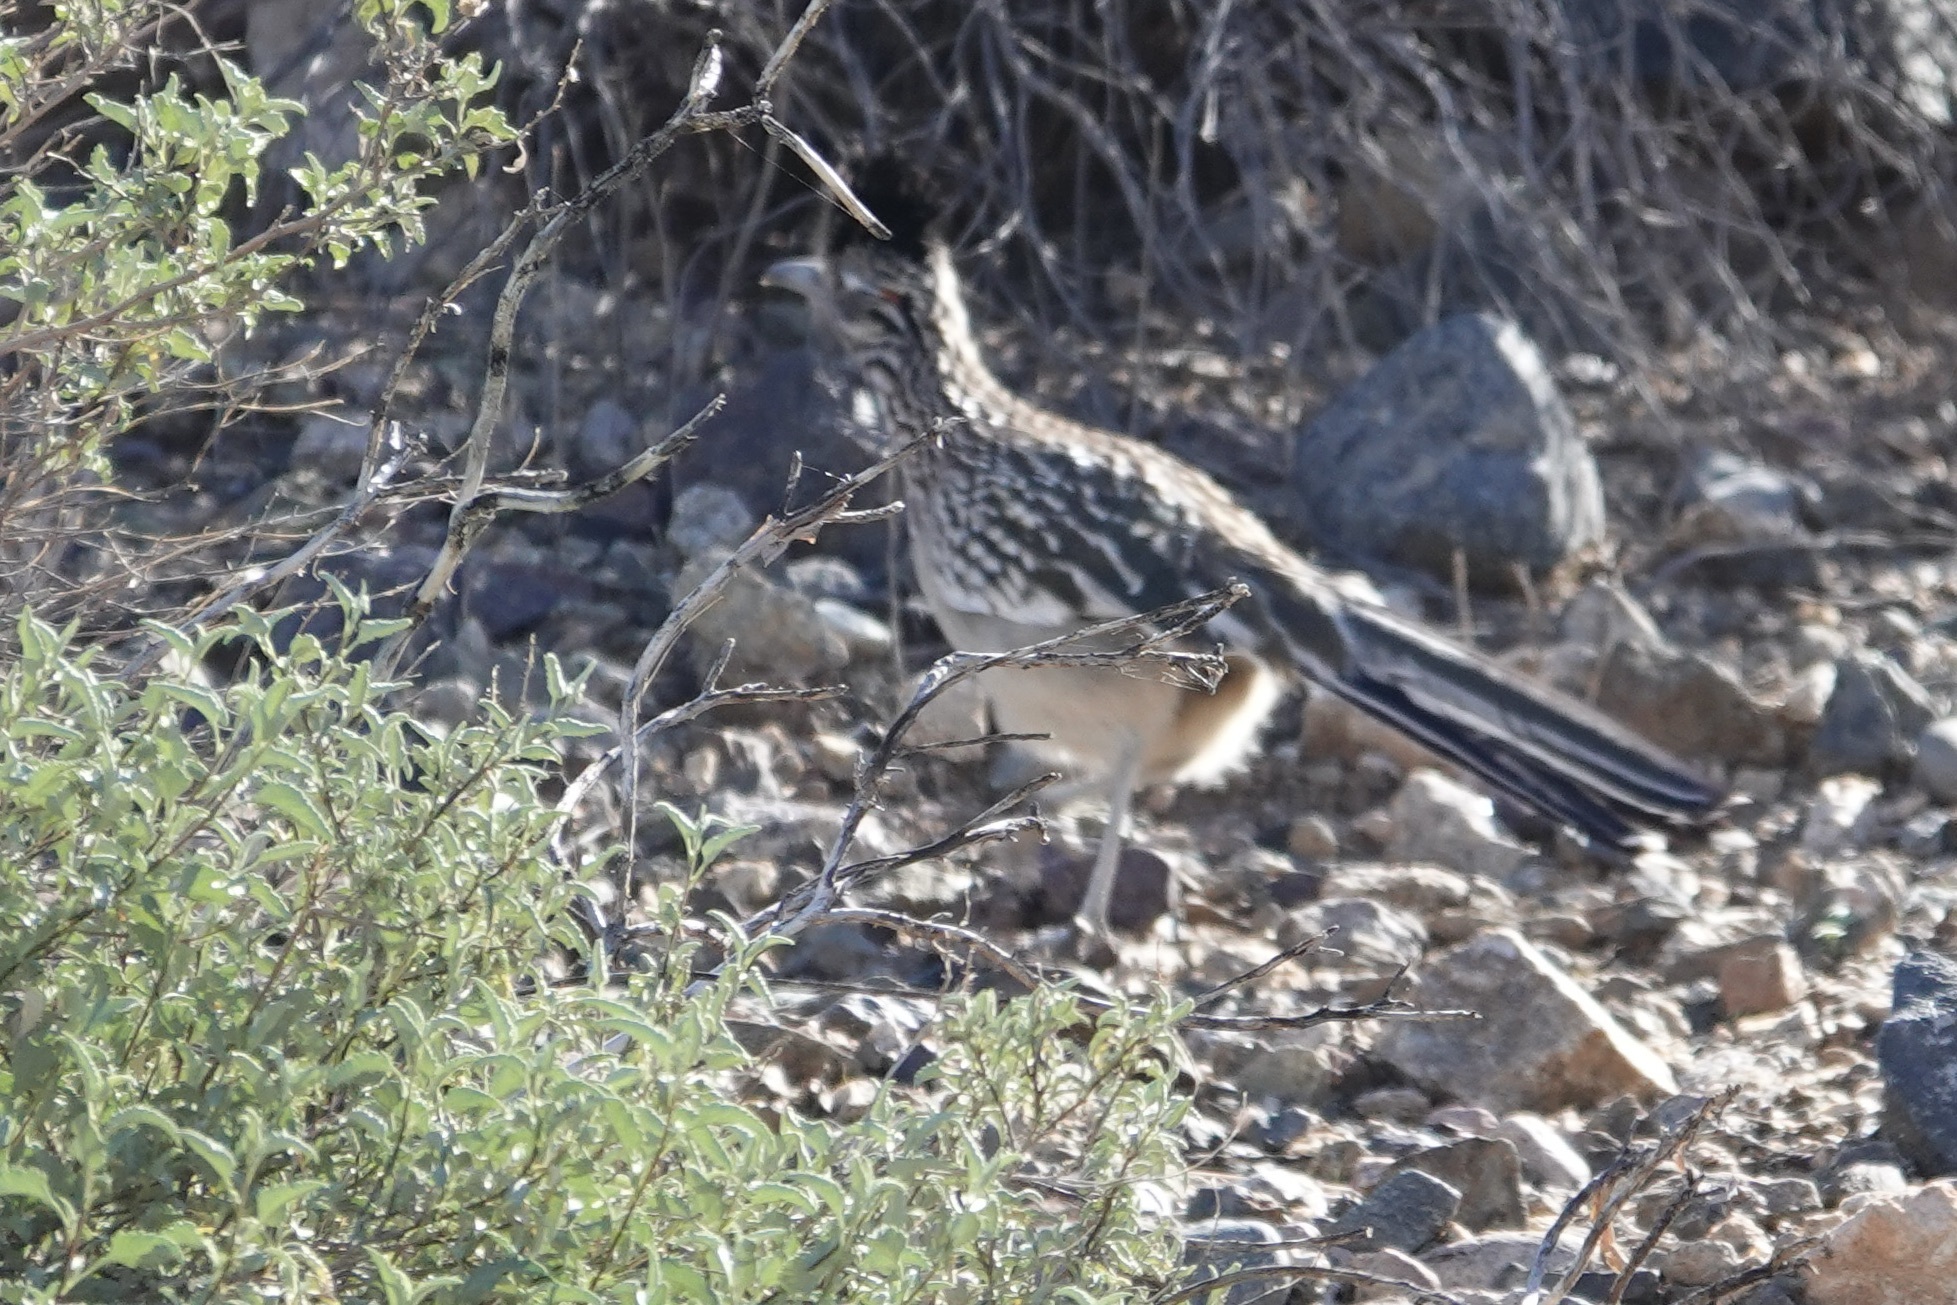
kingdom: Animalia
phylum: Chordata
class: Aves
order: Cuculiformes
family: Cuculidae
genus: Geococcyx
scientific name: Geococcyx californianus
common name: Greater roadrunner
